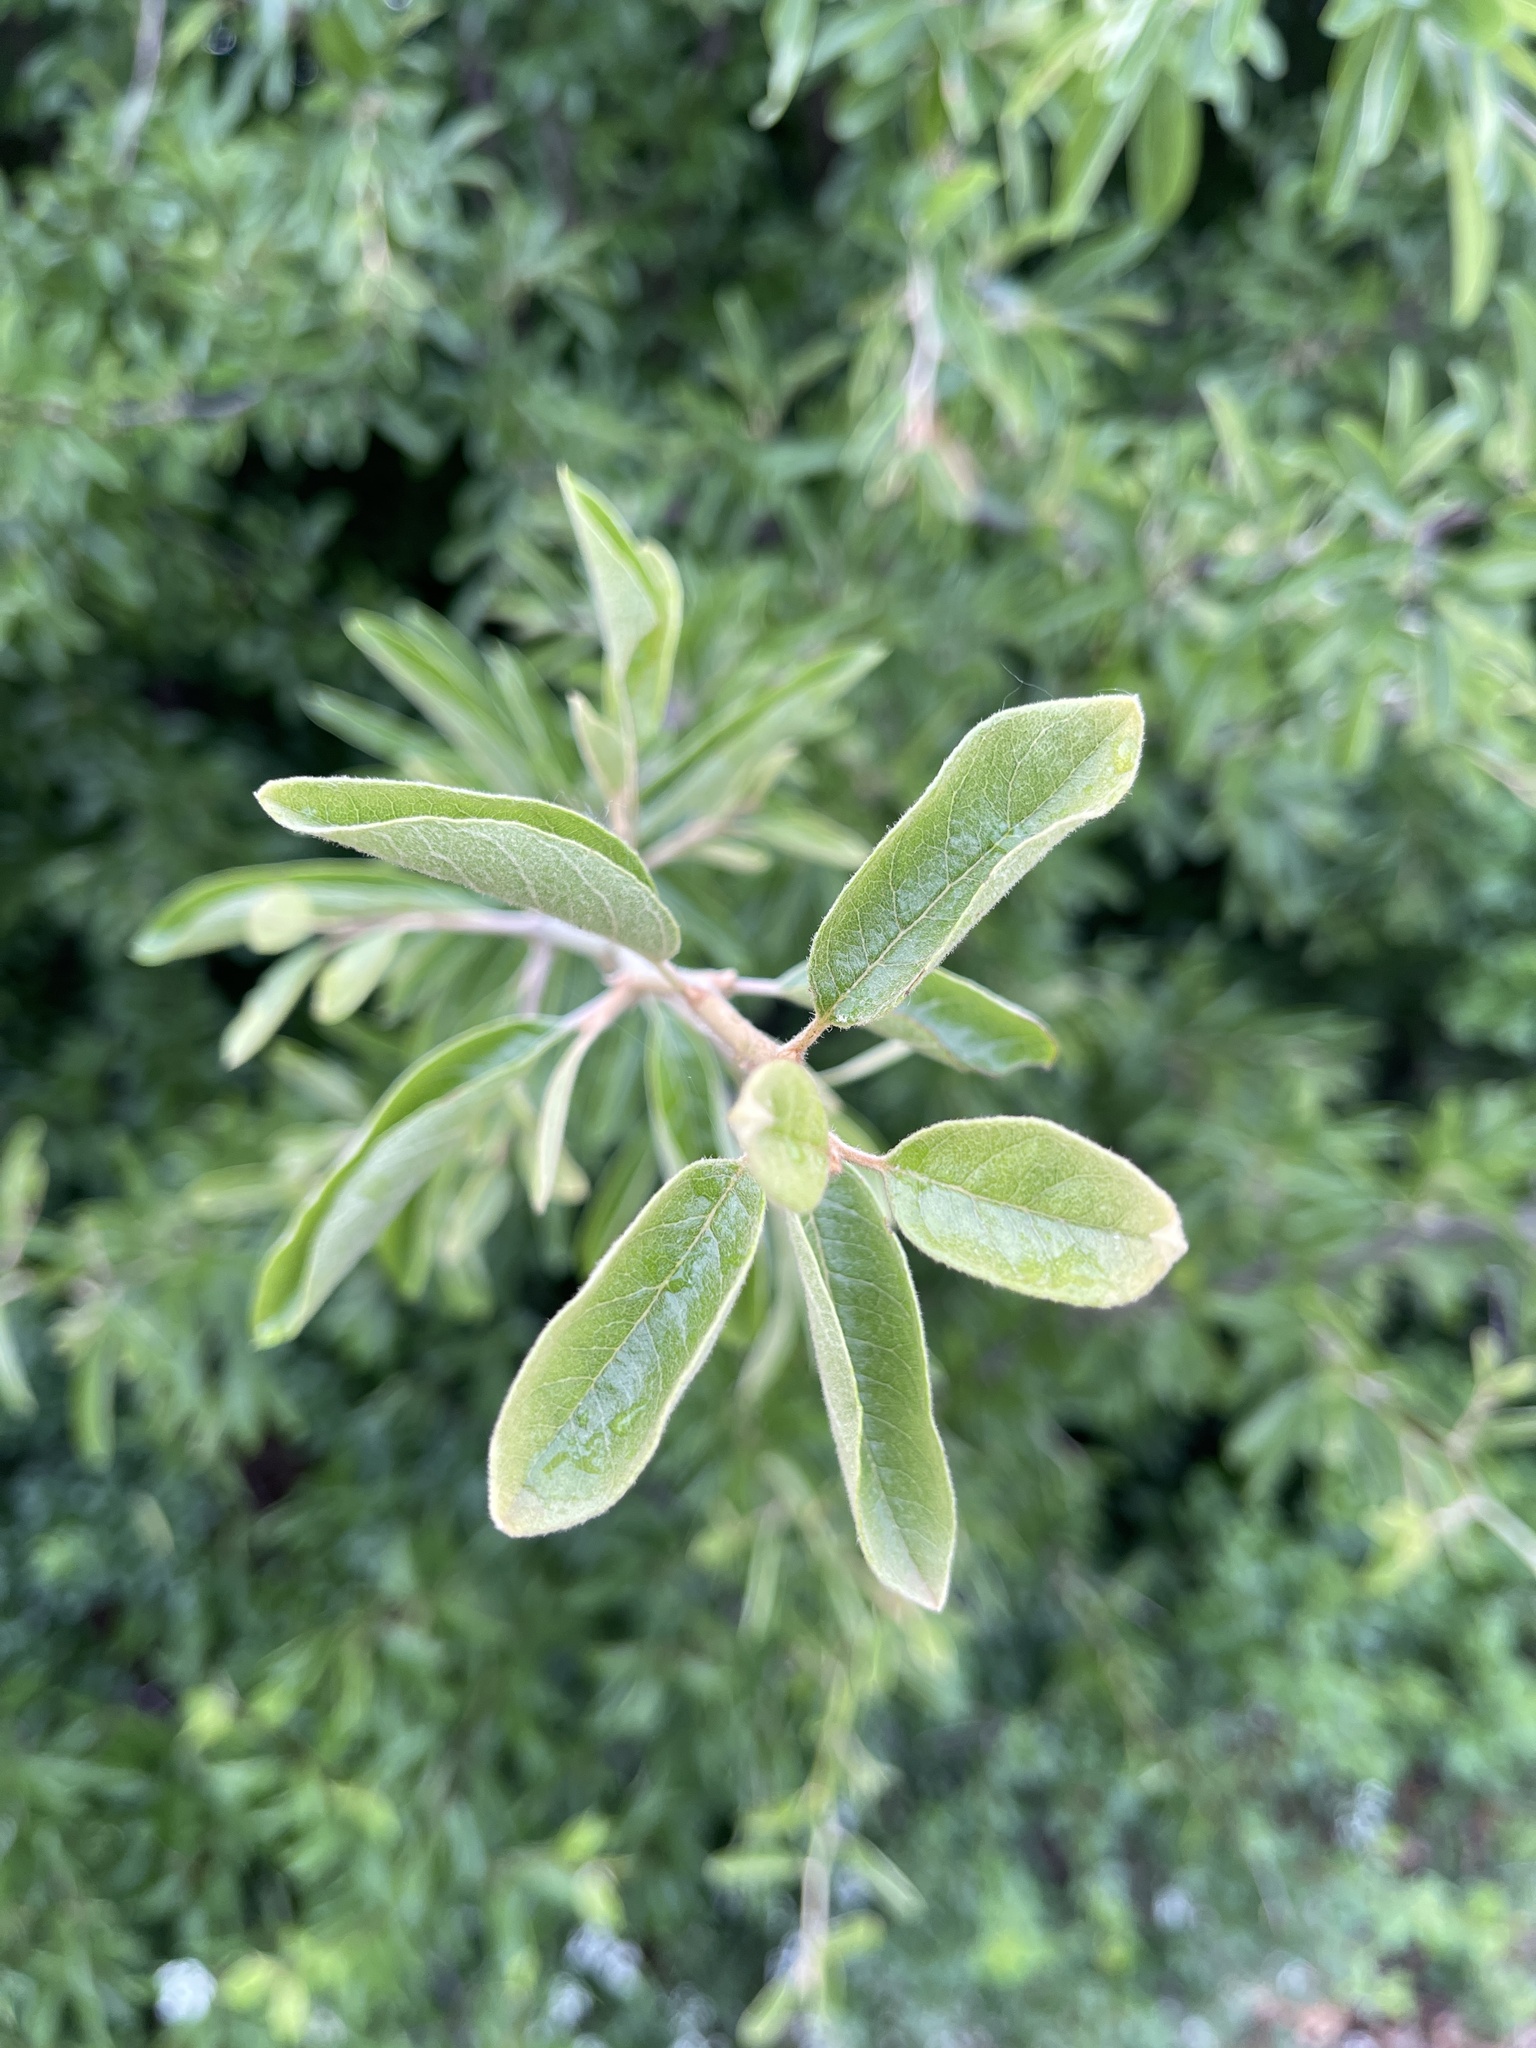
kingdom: Plantae
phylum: Tracheophyta
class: Magnoliopsida
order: Ericales
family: Sapotaceae
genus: Sideroxylon
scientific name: Sideroxylon lanuginosum
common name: Chittamwood
